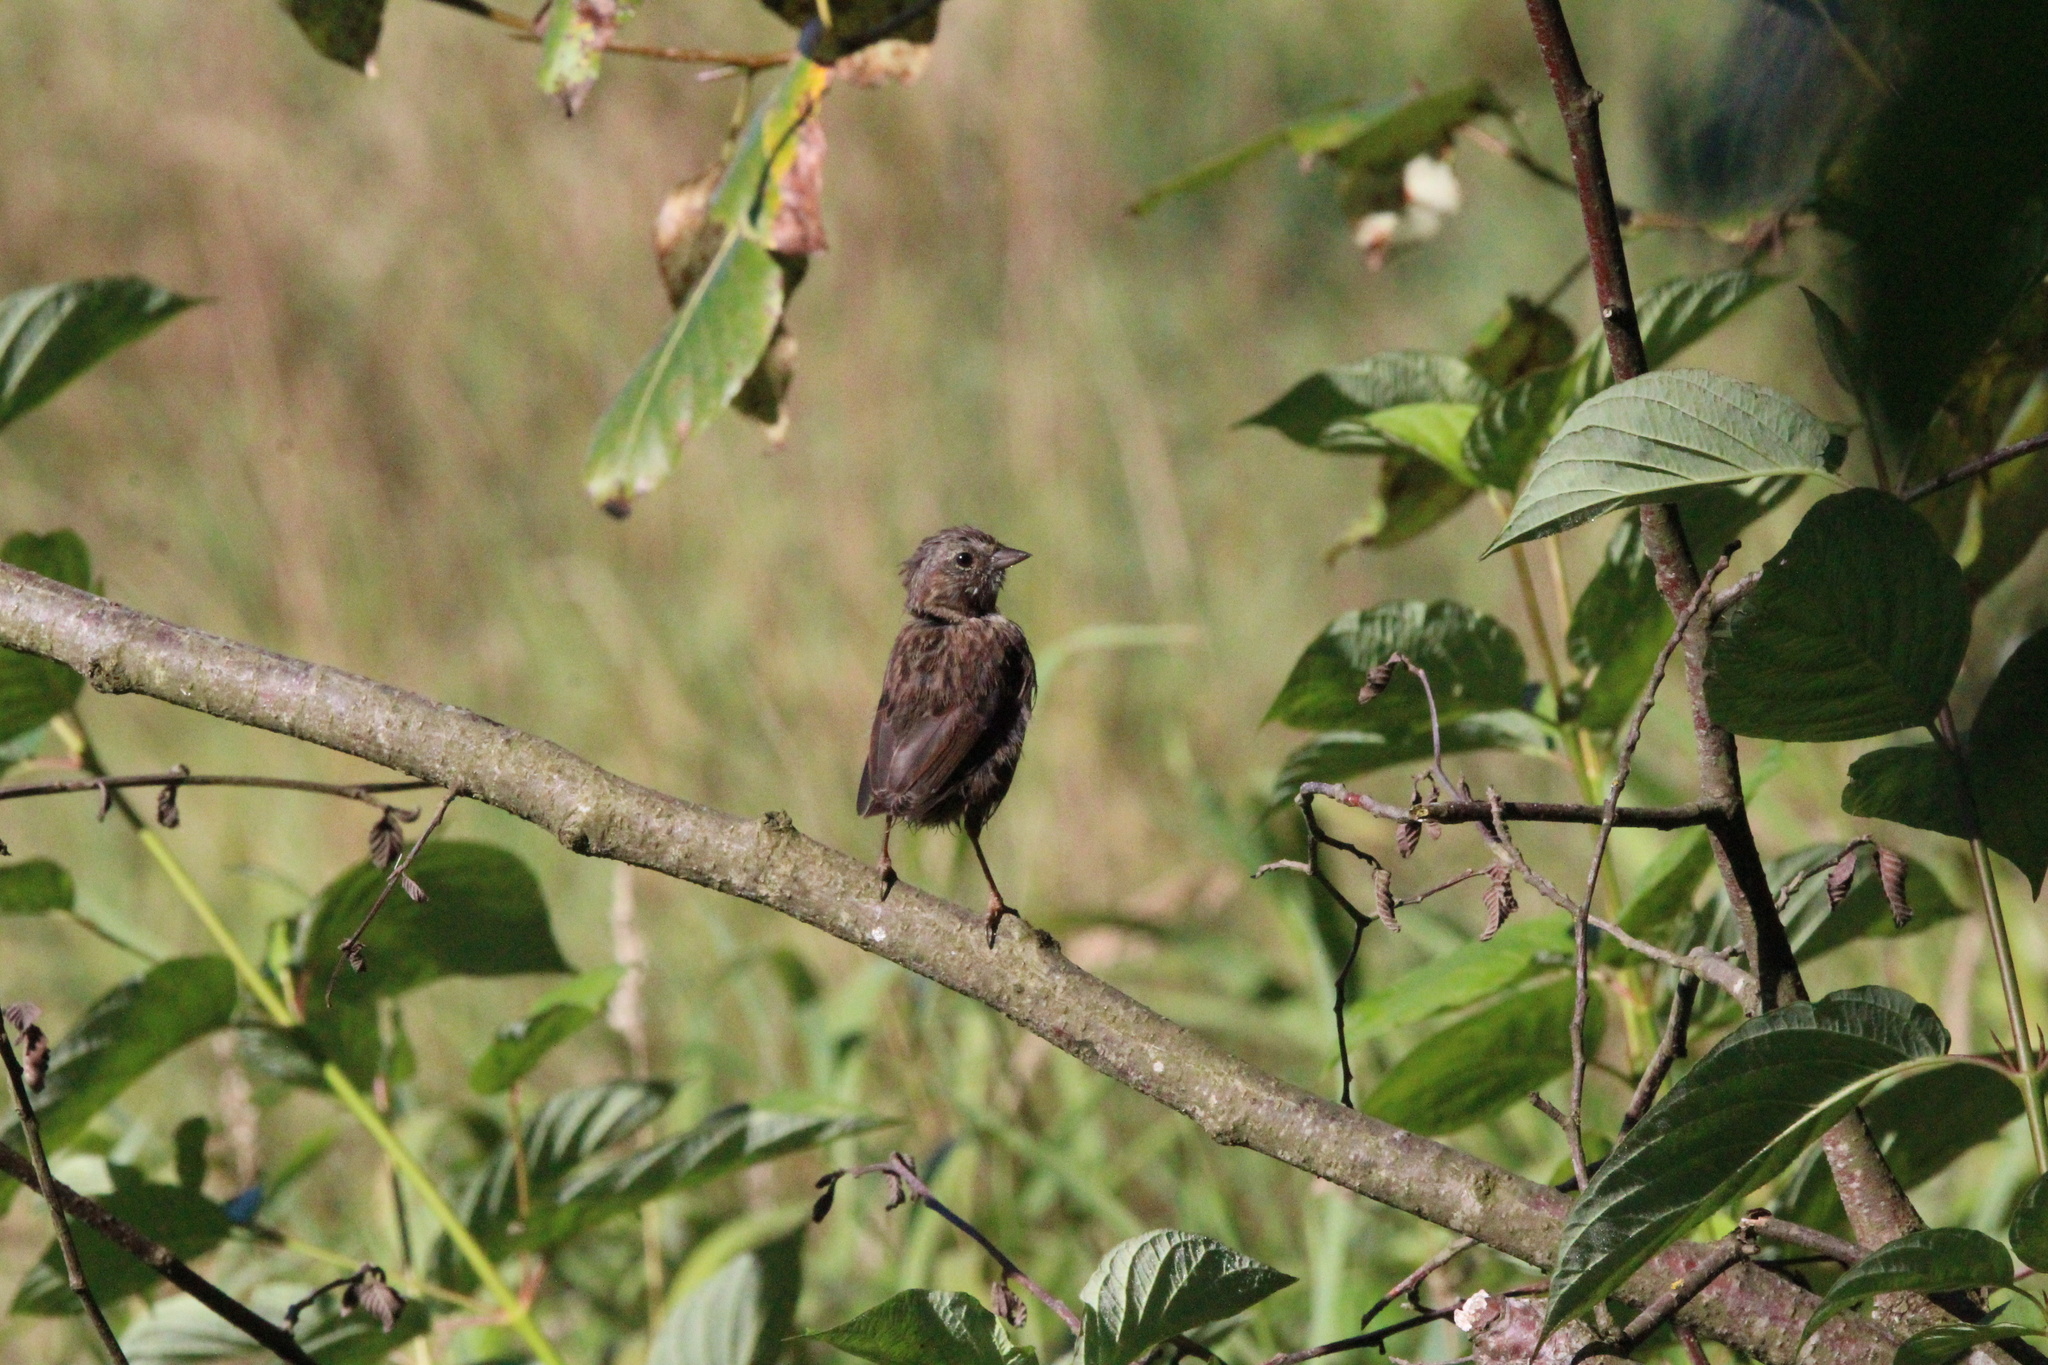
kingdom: Animalia
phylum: Chordata
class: Aves
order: Passeriformes
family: Passerellidae
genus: Melospiza
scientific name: Melospiza melodia
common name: Song sparrow
